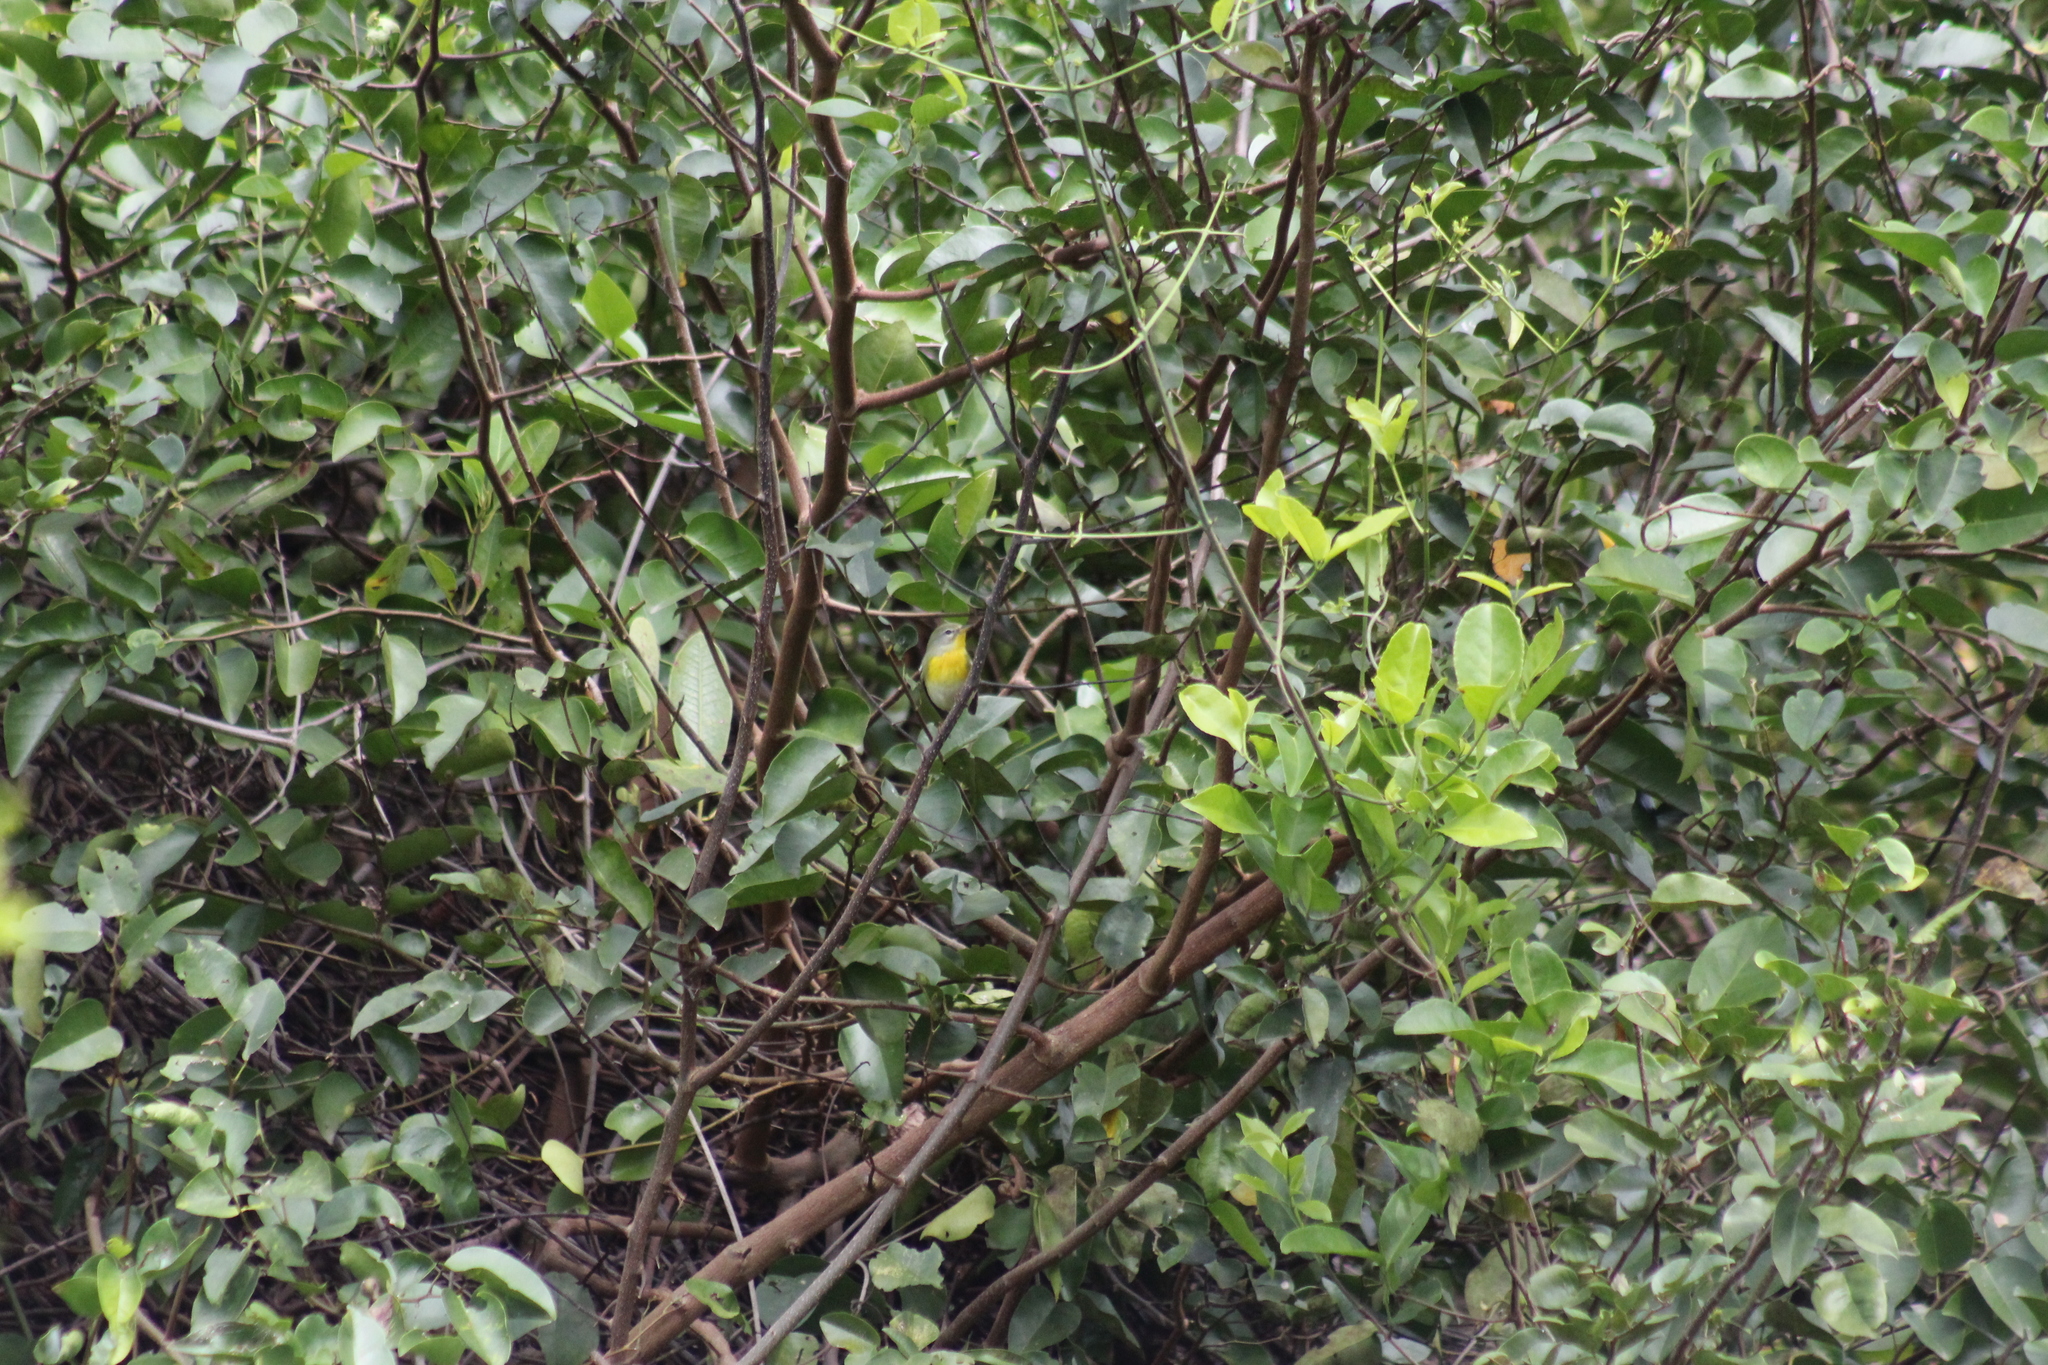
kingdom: Animalia
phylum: Chordata
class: Aves
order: Passeriformes
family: Parulidae
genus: Setophaga
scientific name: Setophaga americana
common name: Northern parula
